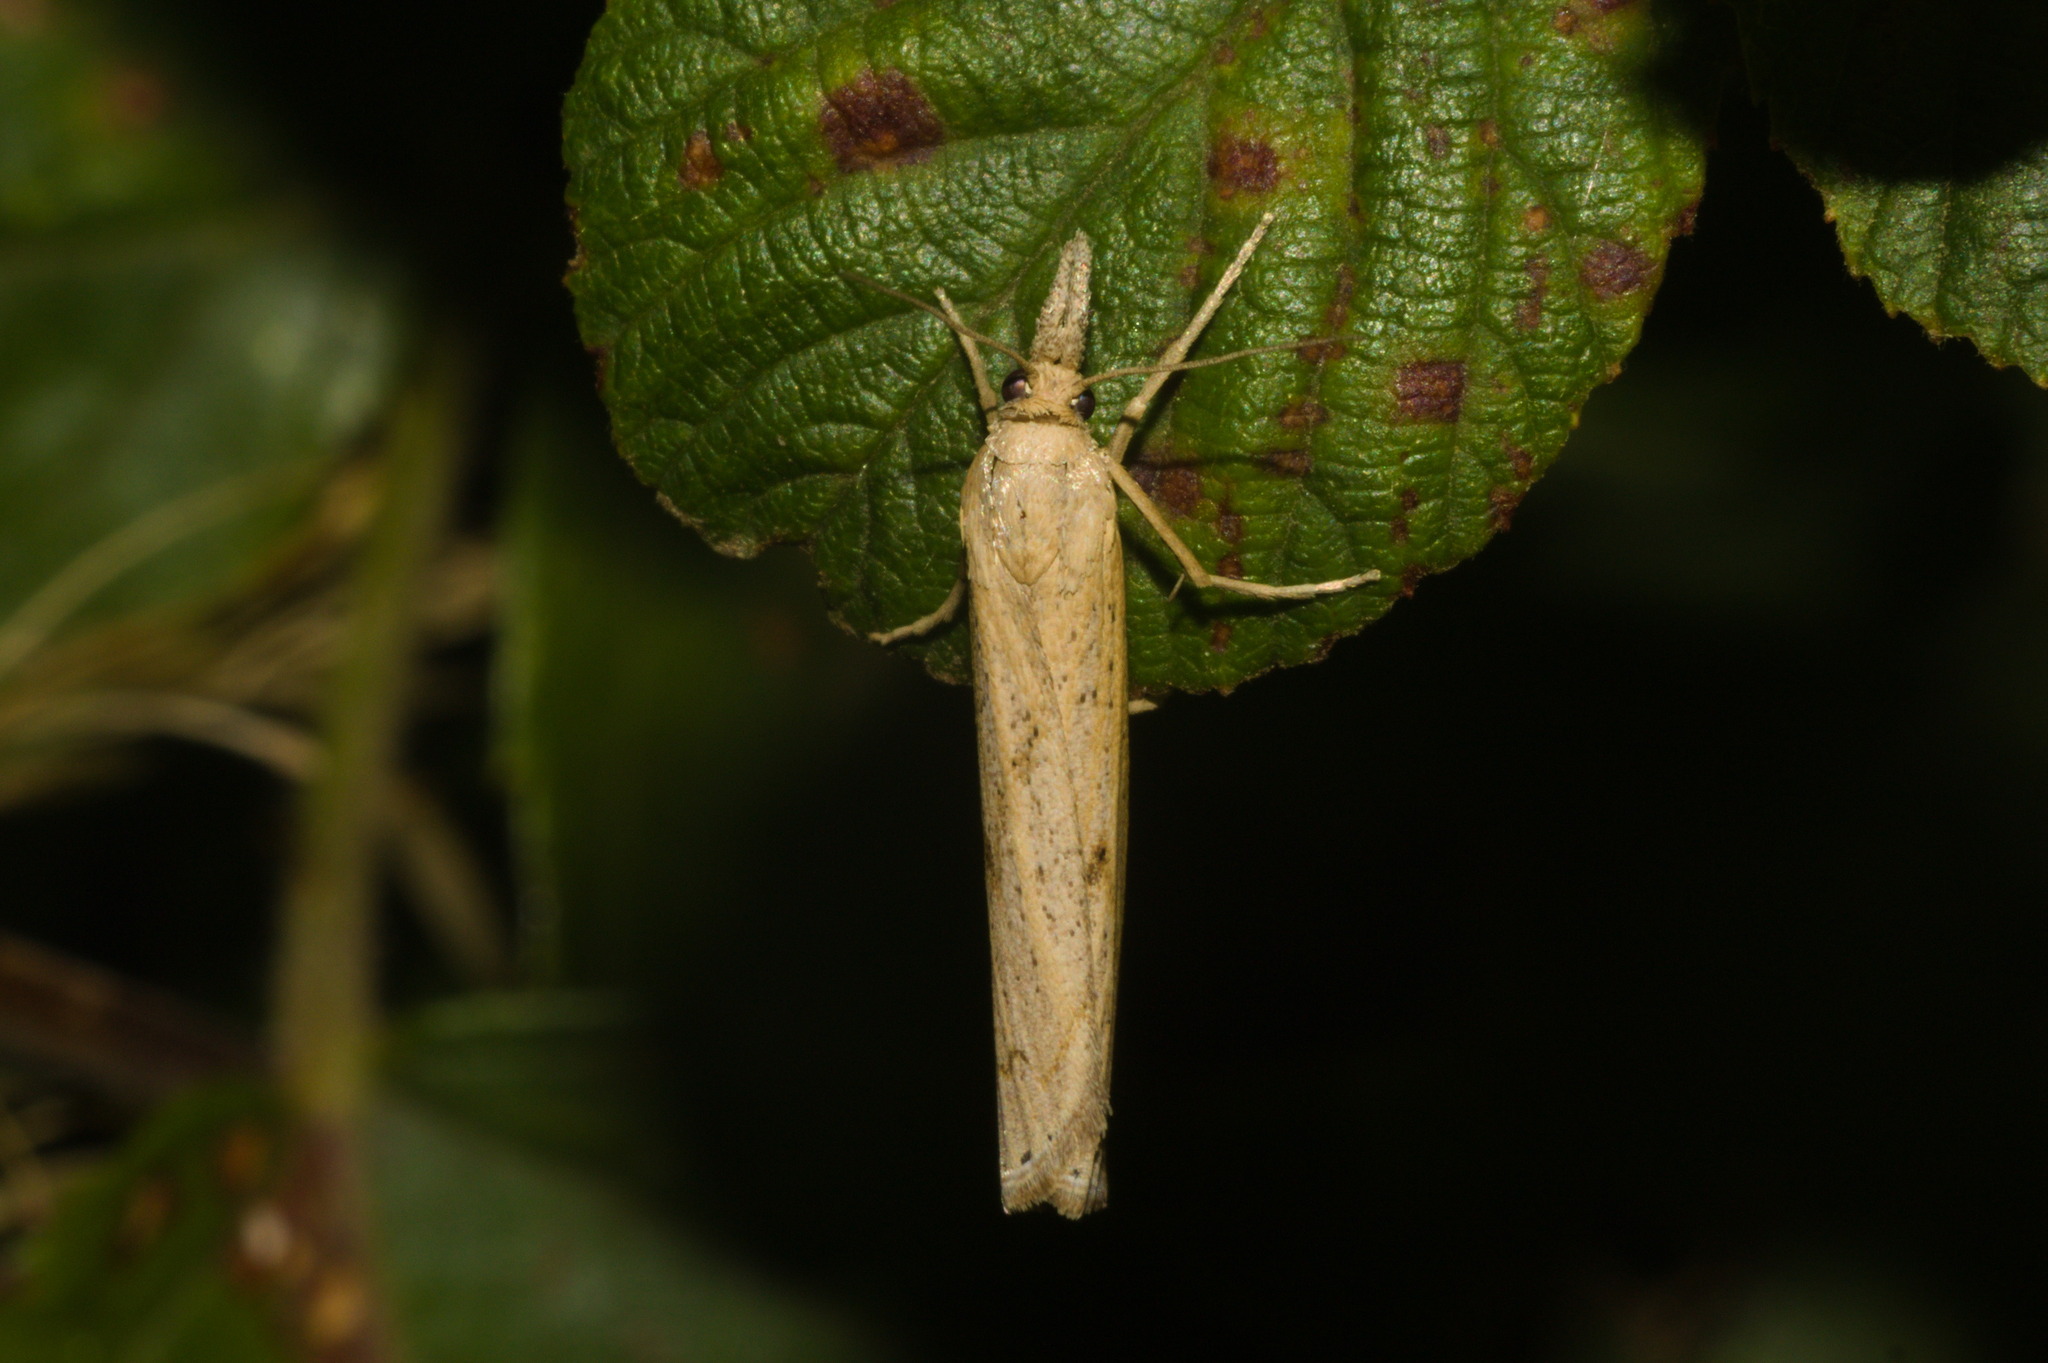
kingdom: Animalia
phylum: Arthropoda
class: Insecta
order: Lepidoptera
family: Crambidae
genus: Pediasia
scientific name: Pediasia contaminella
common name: Waste grass-veneer
